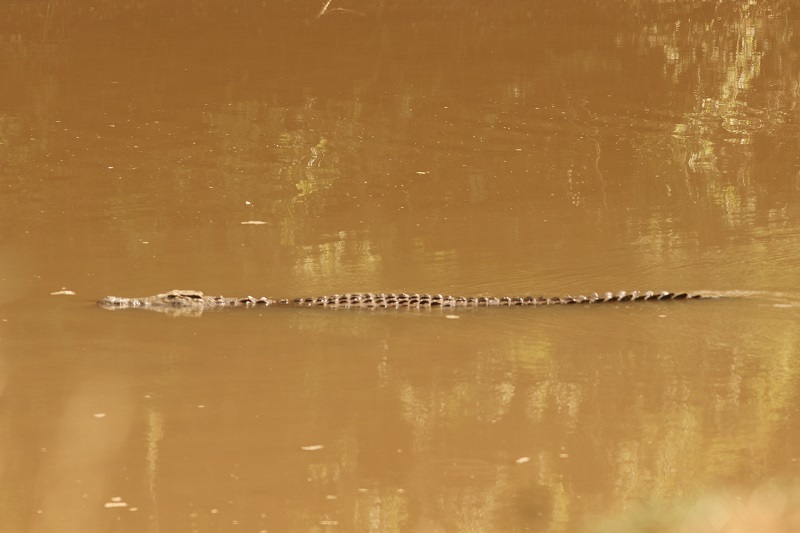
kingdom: Animalia
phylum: Chordata
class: Crocodylia
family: Crocodylidae
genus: Crocodylus
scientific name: Crocodylus niloticus
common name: Nile crocodile
